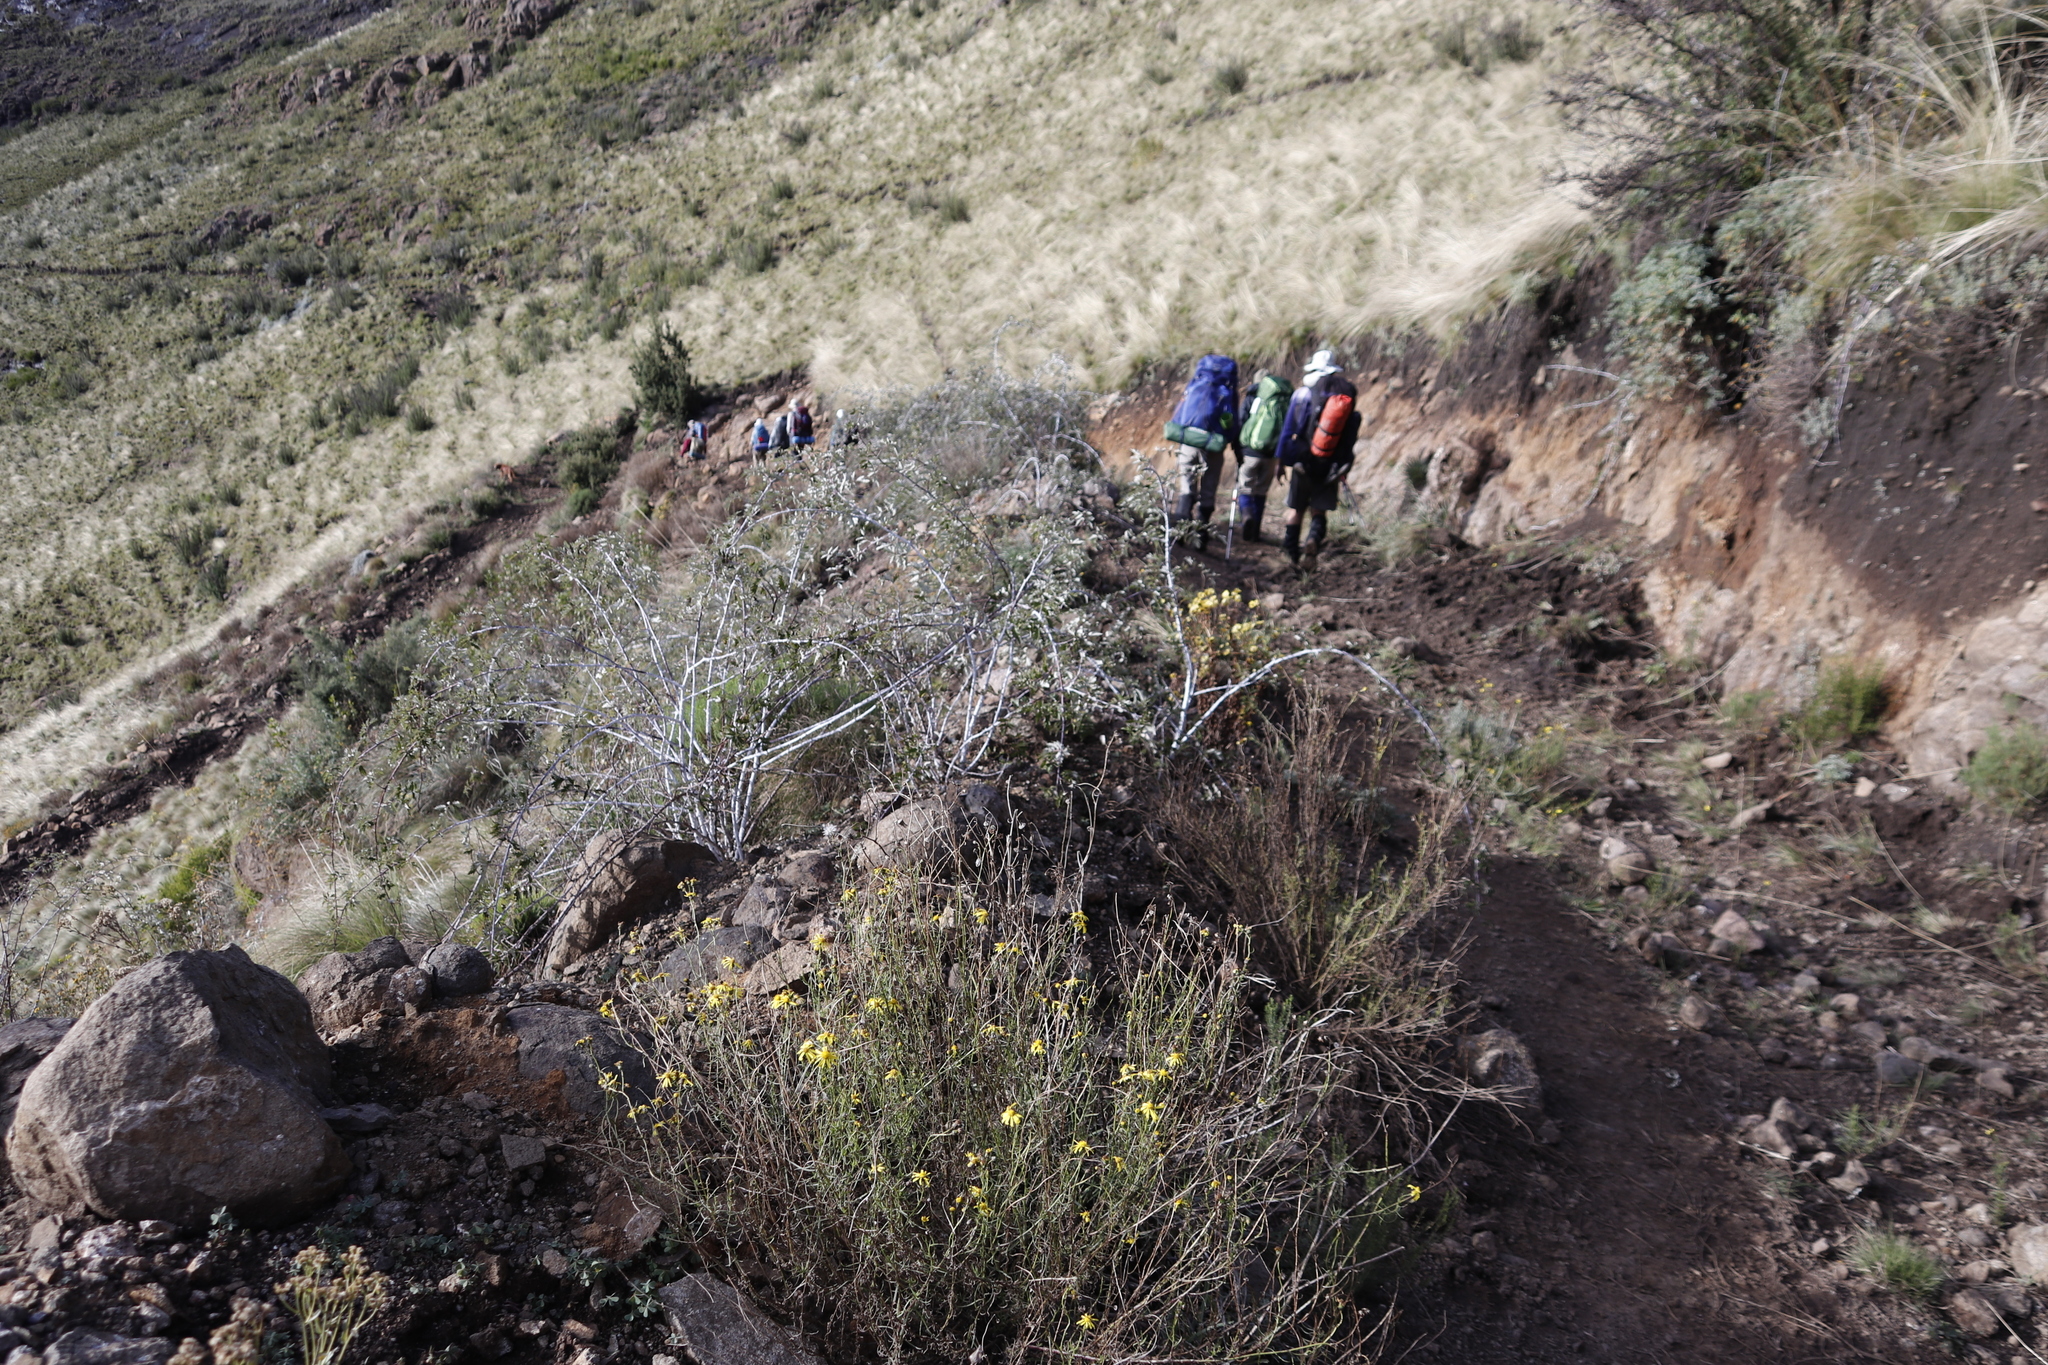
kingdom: Plantae
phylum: Tracheophyta
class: Magnoliopsida
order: Rosales
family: Rosaceae
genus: Rubus
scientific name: Rubus ludwigii
